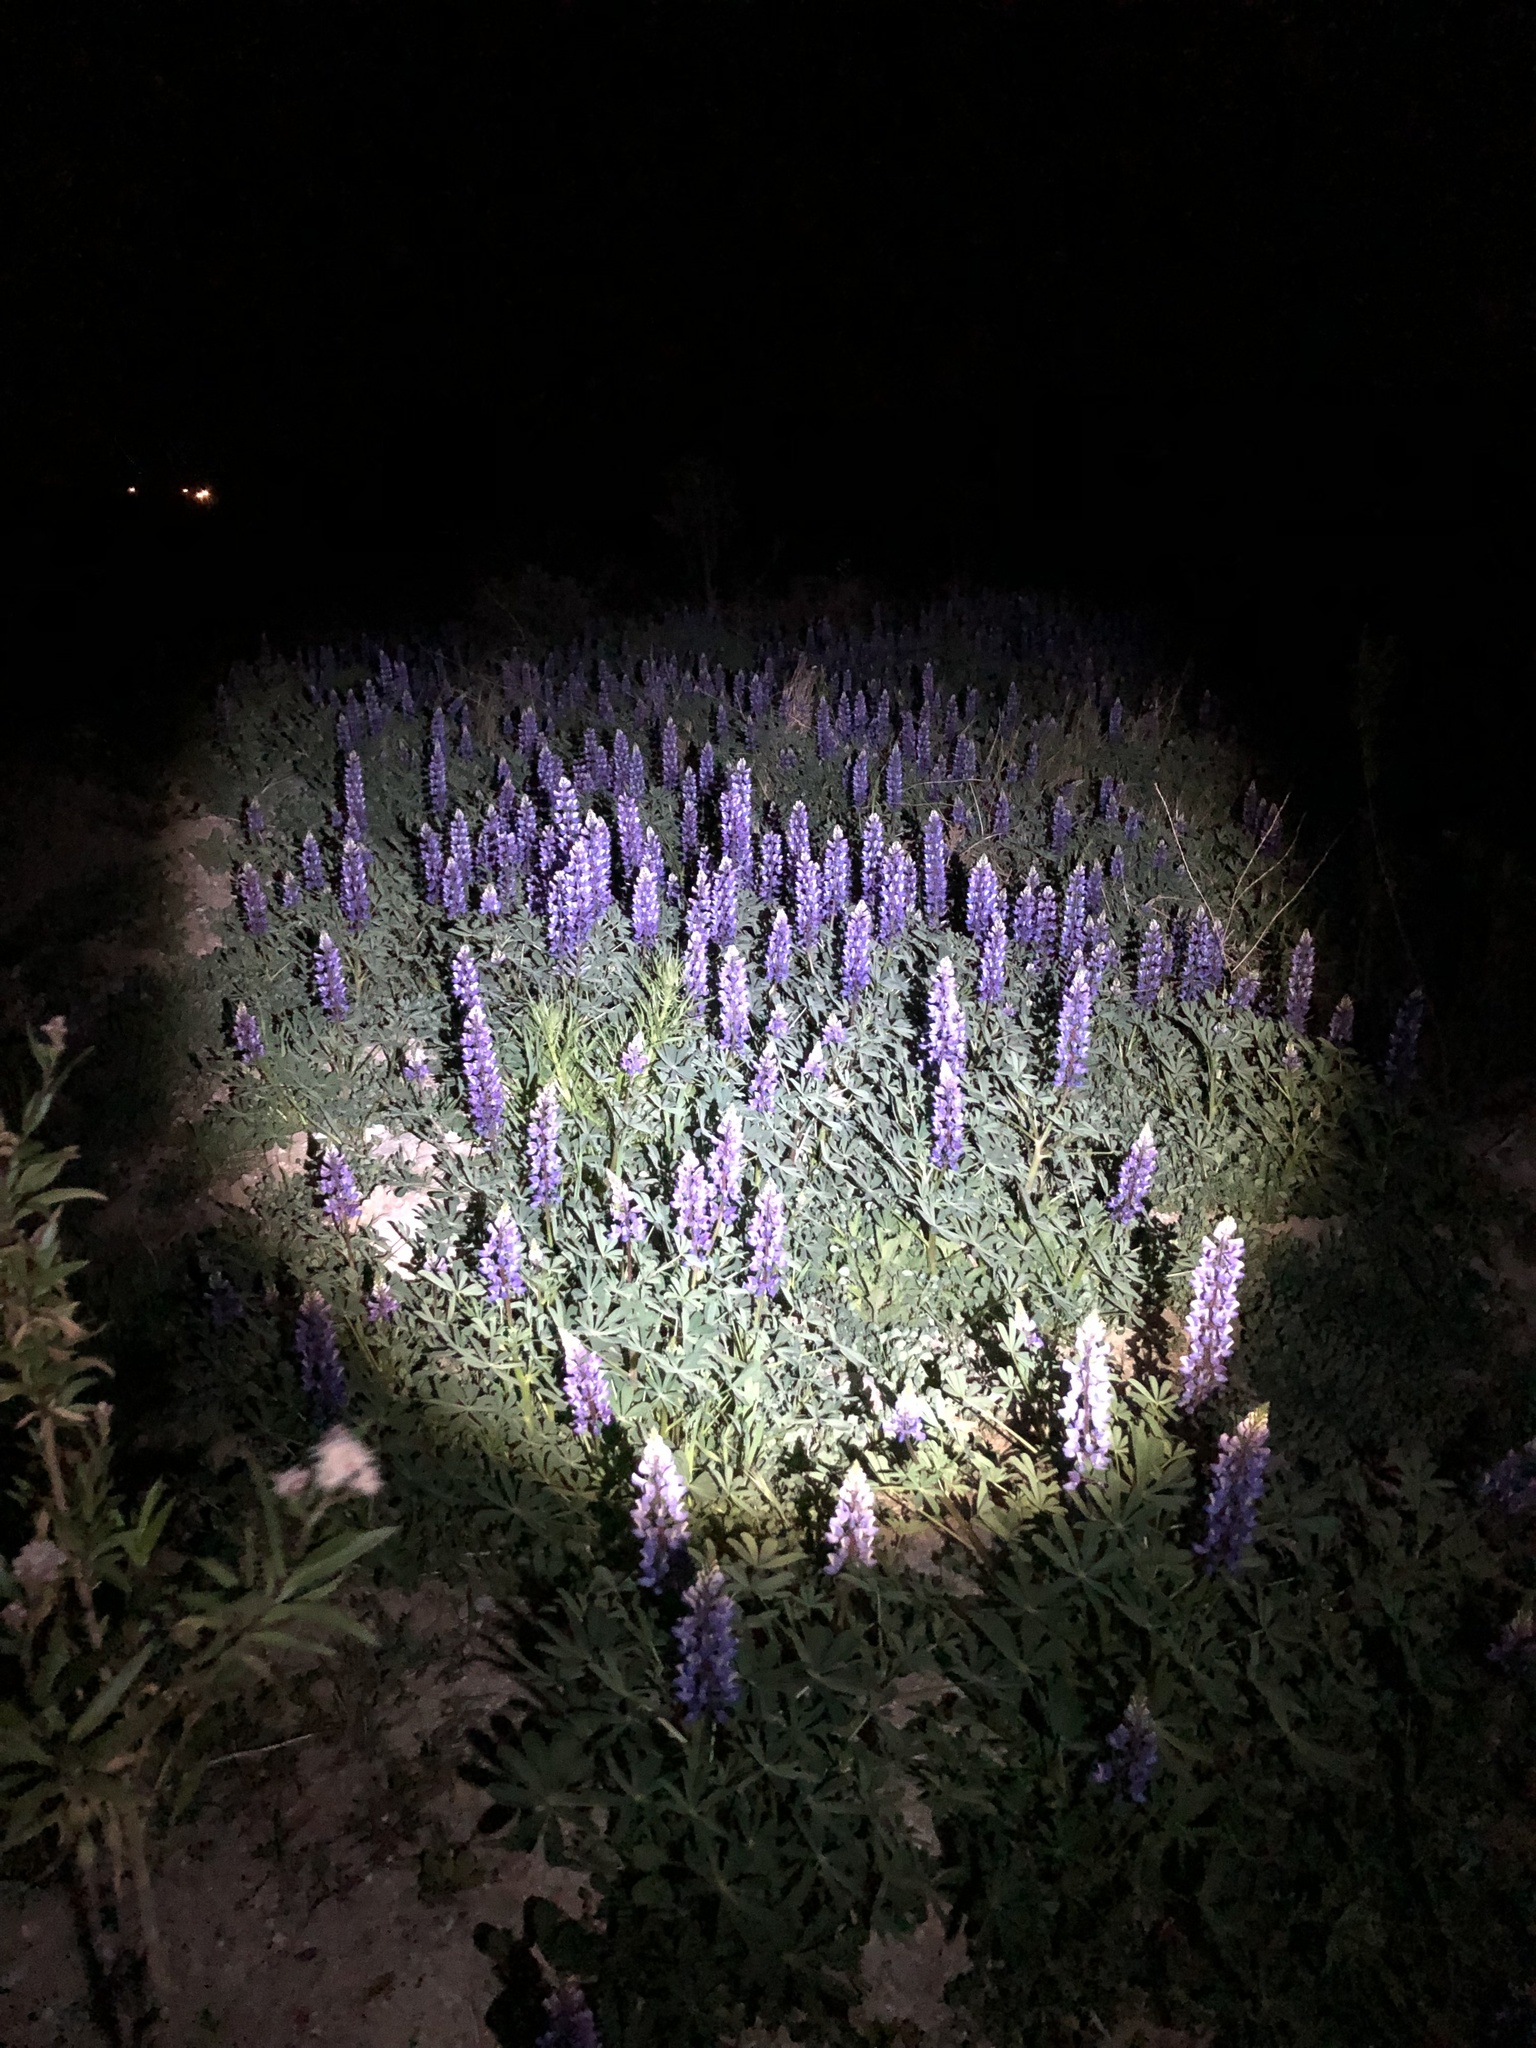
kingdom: Plantae
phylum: Tracheophyta
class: Magnoliopsida
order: Fabales
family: Fabaceae
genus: Lupinus
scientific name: Lupinus succulentus
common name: Arroyo lupine
